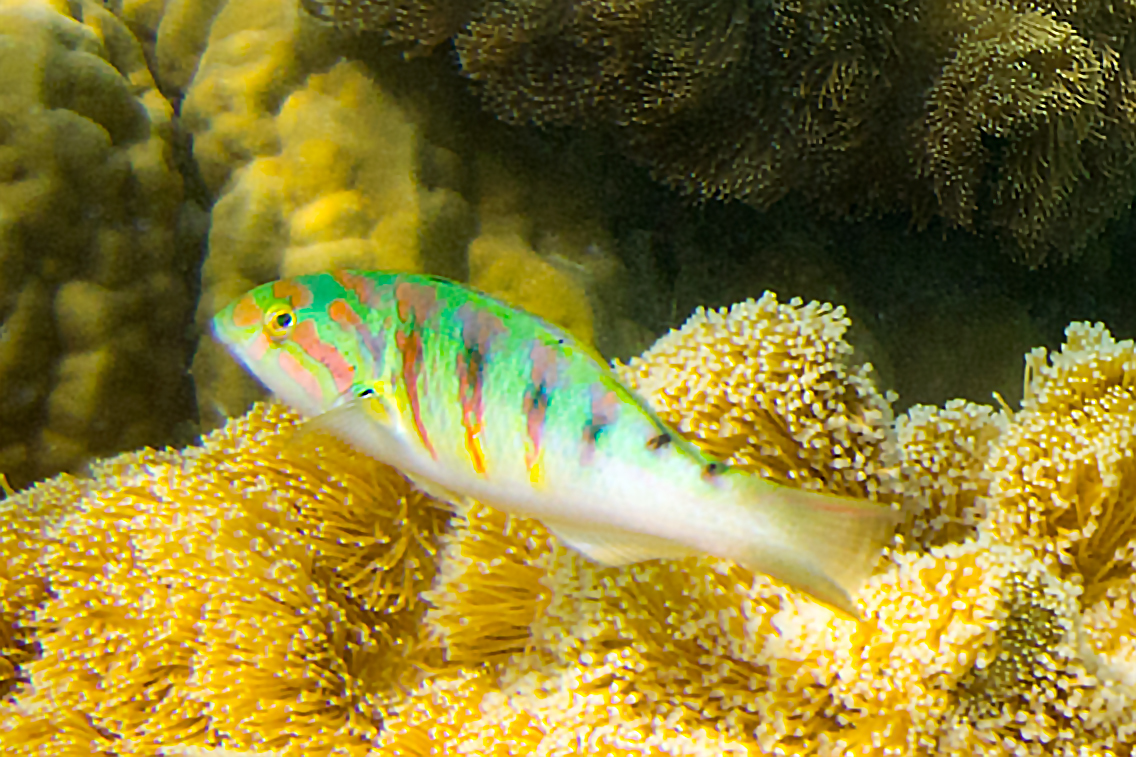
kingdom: Animalia
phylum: Chordata
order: Perciformes
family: Labridae
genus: Thalassoma
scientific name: Thalassoma hardwicke
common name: Sixbar wrasse
